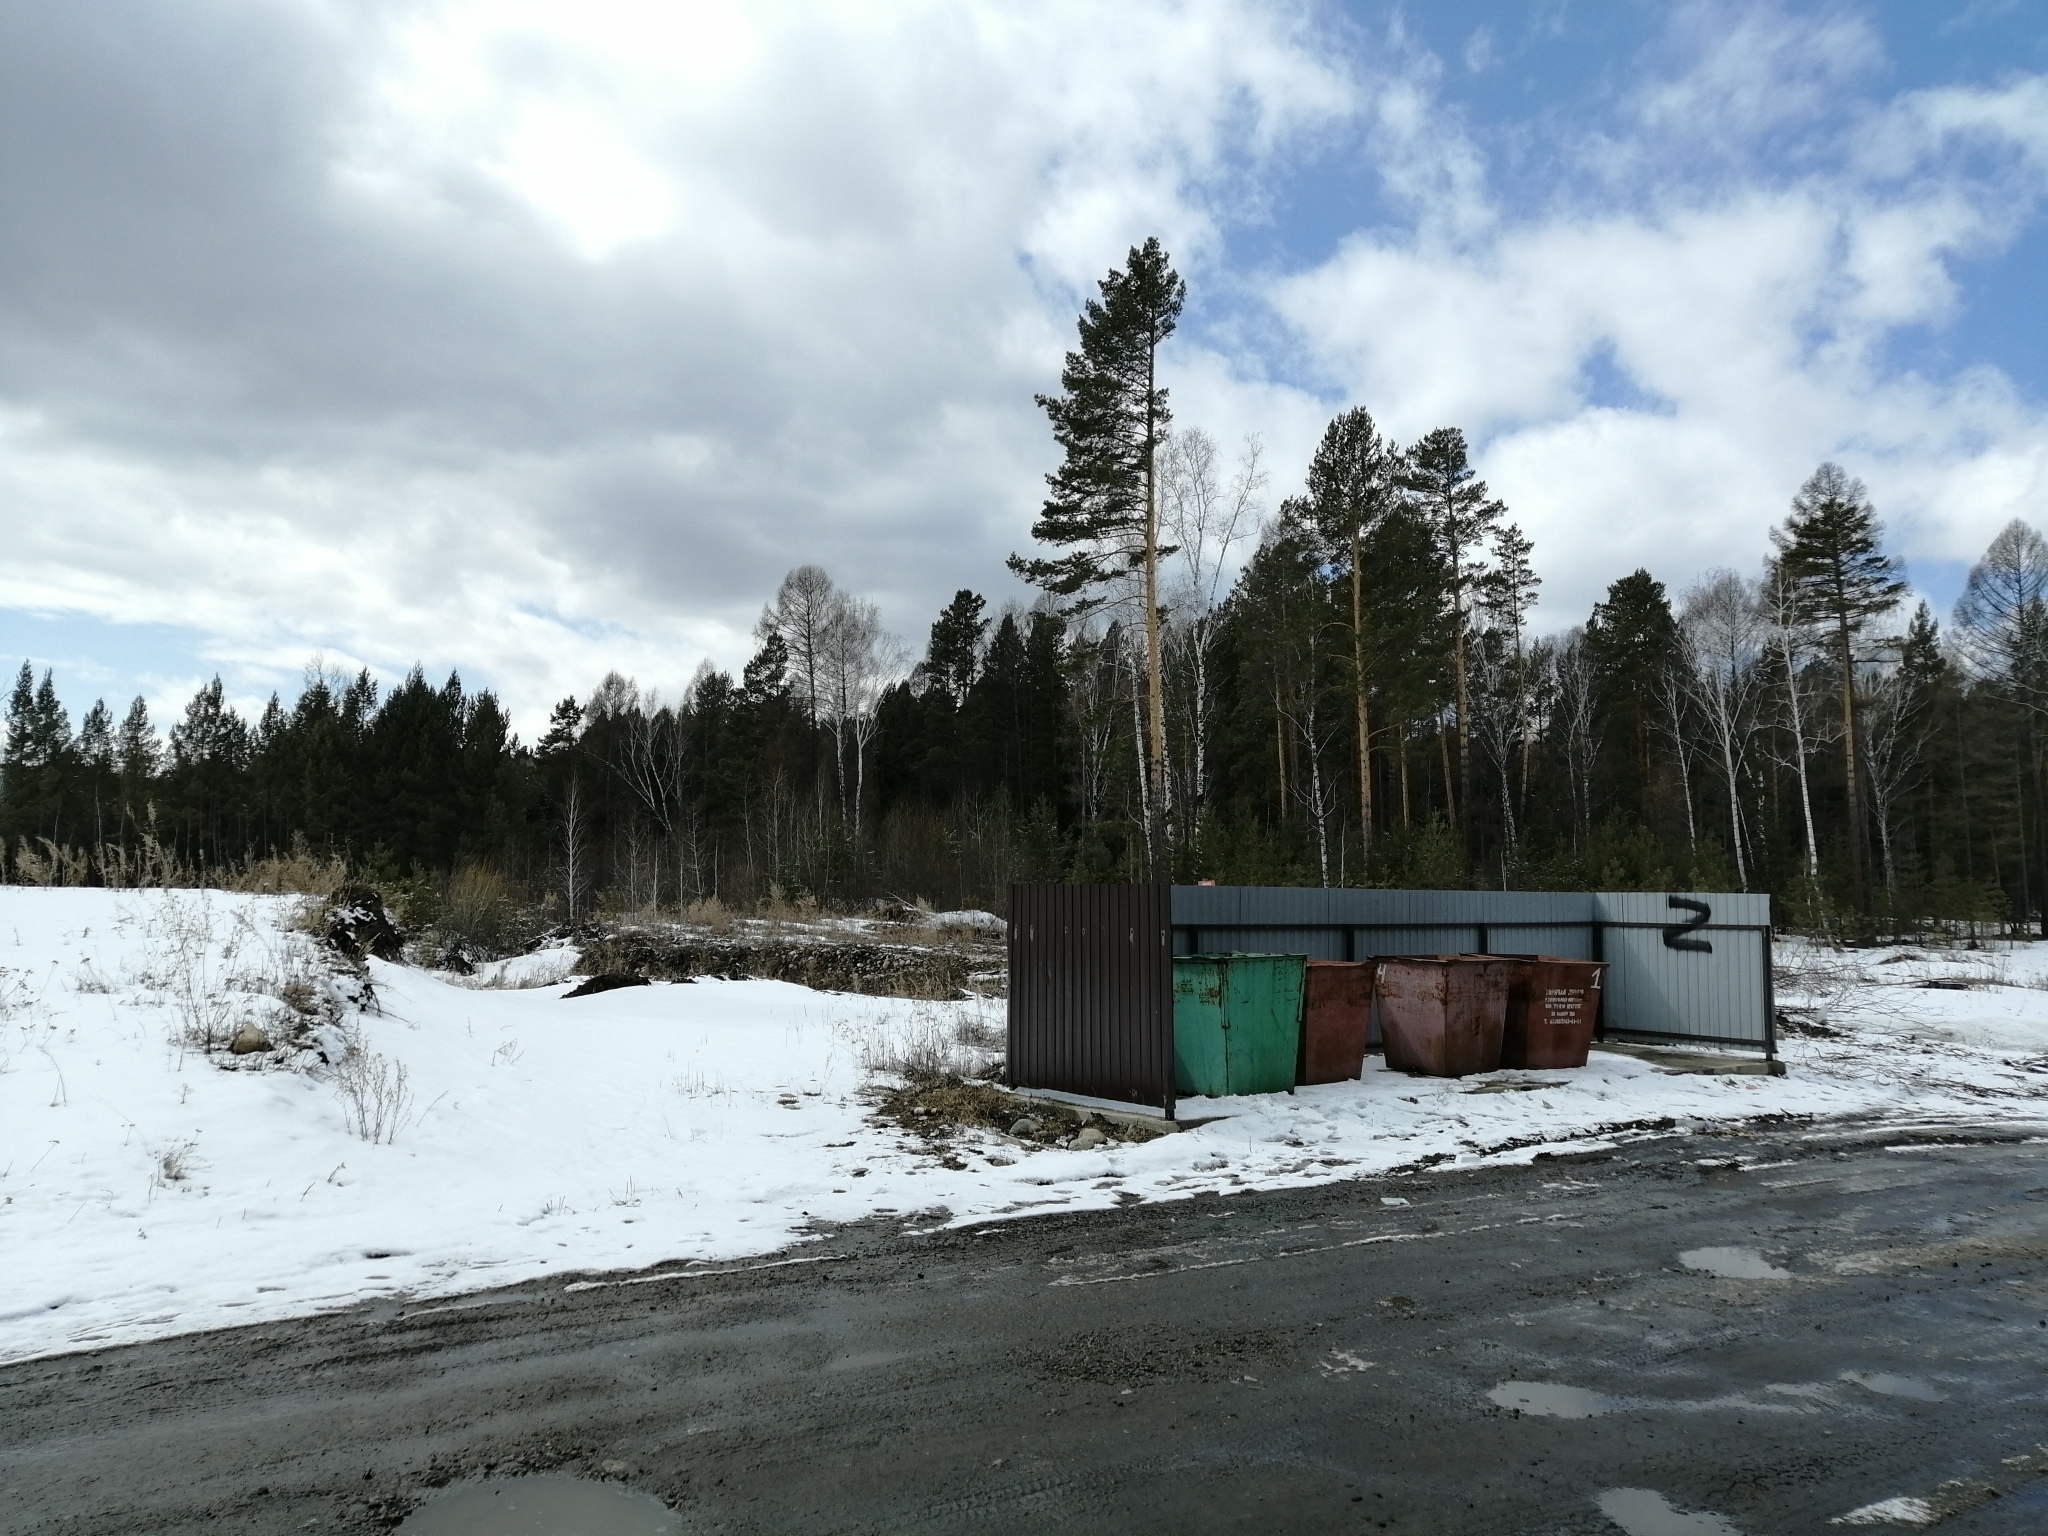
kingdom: Plantae
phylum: Tracheophyta
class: Pinopsida
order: Pinales
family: Pinaceae
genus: Pinus
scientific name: Pinus sylvestris
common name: Scots pine
